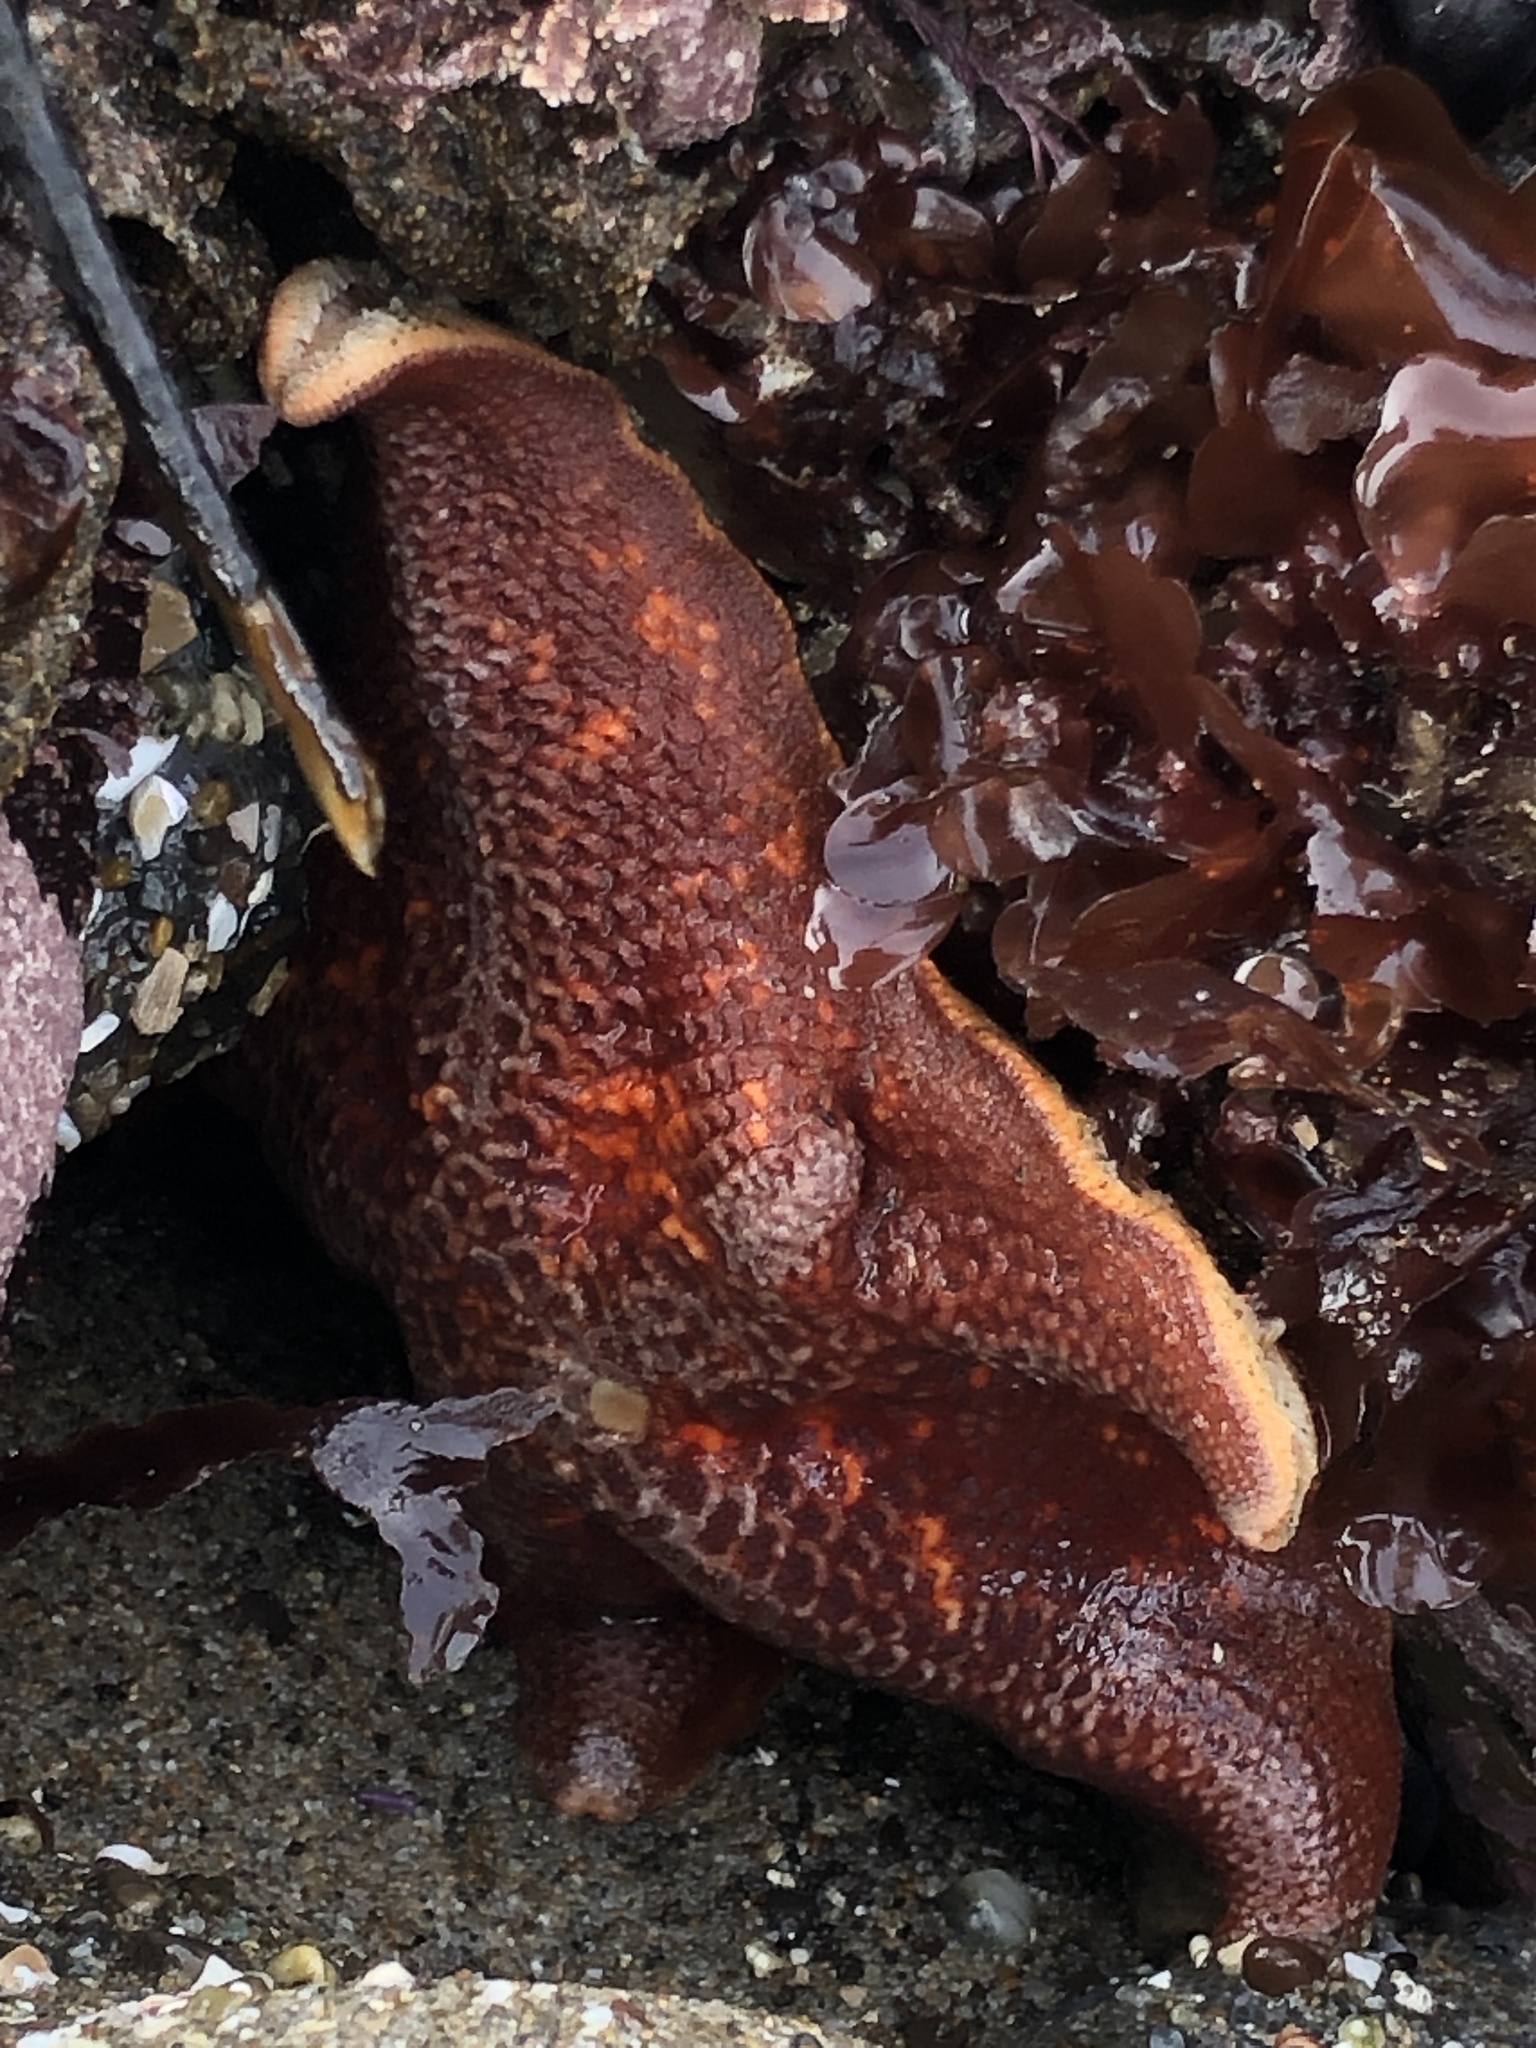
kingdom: Animalia
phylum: Echinodermata
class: Asteroidea
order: Valvatida
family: Asterinidae
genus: Patiria
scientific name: Patiria miniata
